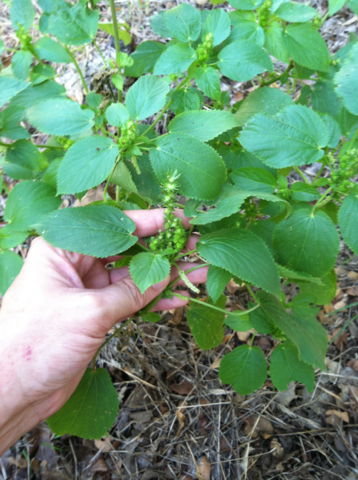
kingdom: Plantae
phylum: Tracheophyta
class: Magnoliopsida
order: Malpighiales
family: Euphorbiaceae
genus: Acalypha
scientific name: Acalypha ostryifolia
